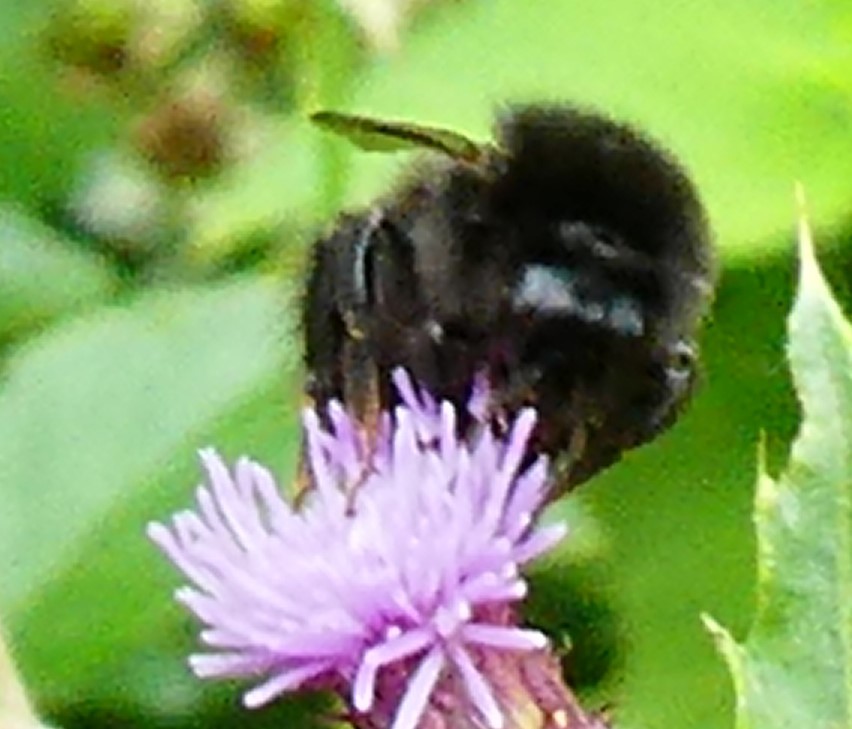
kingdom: Animalia
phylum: Arthropoda
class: Insecta
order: Hymenoptera
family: Apidae
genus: Bombus
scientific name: Bombus lapidarius
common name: Large red-tailed humble-bee
